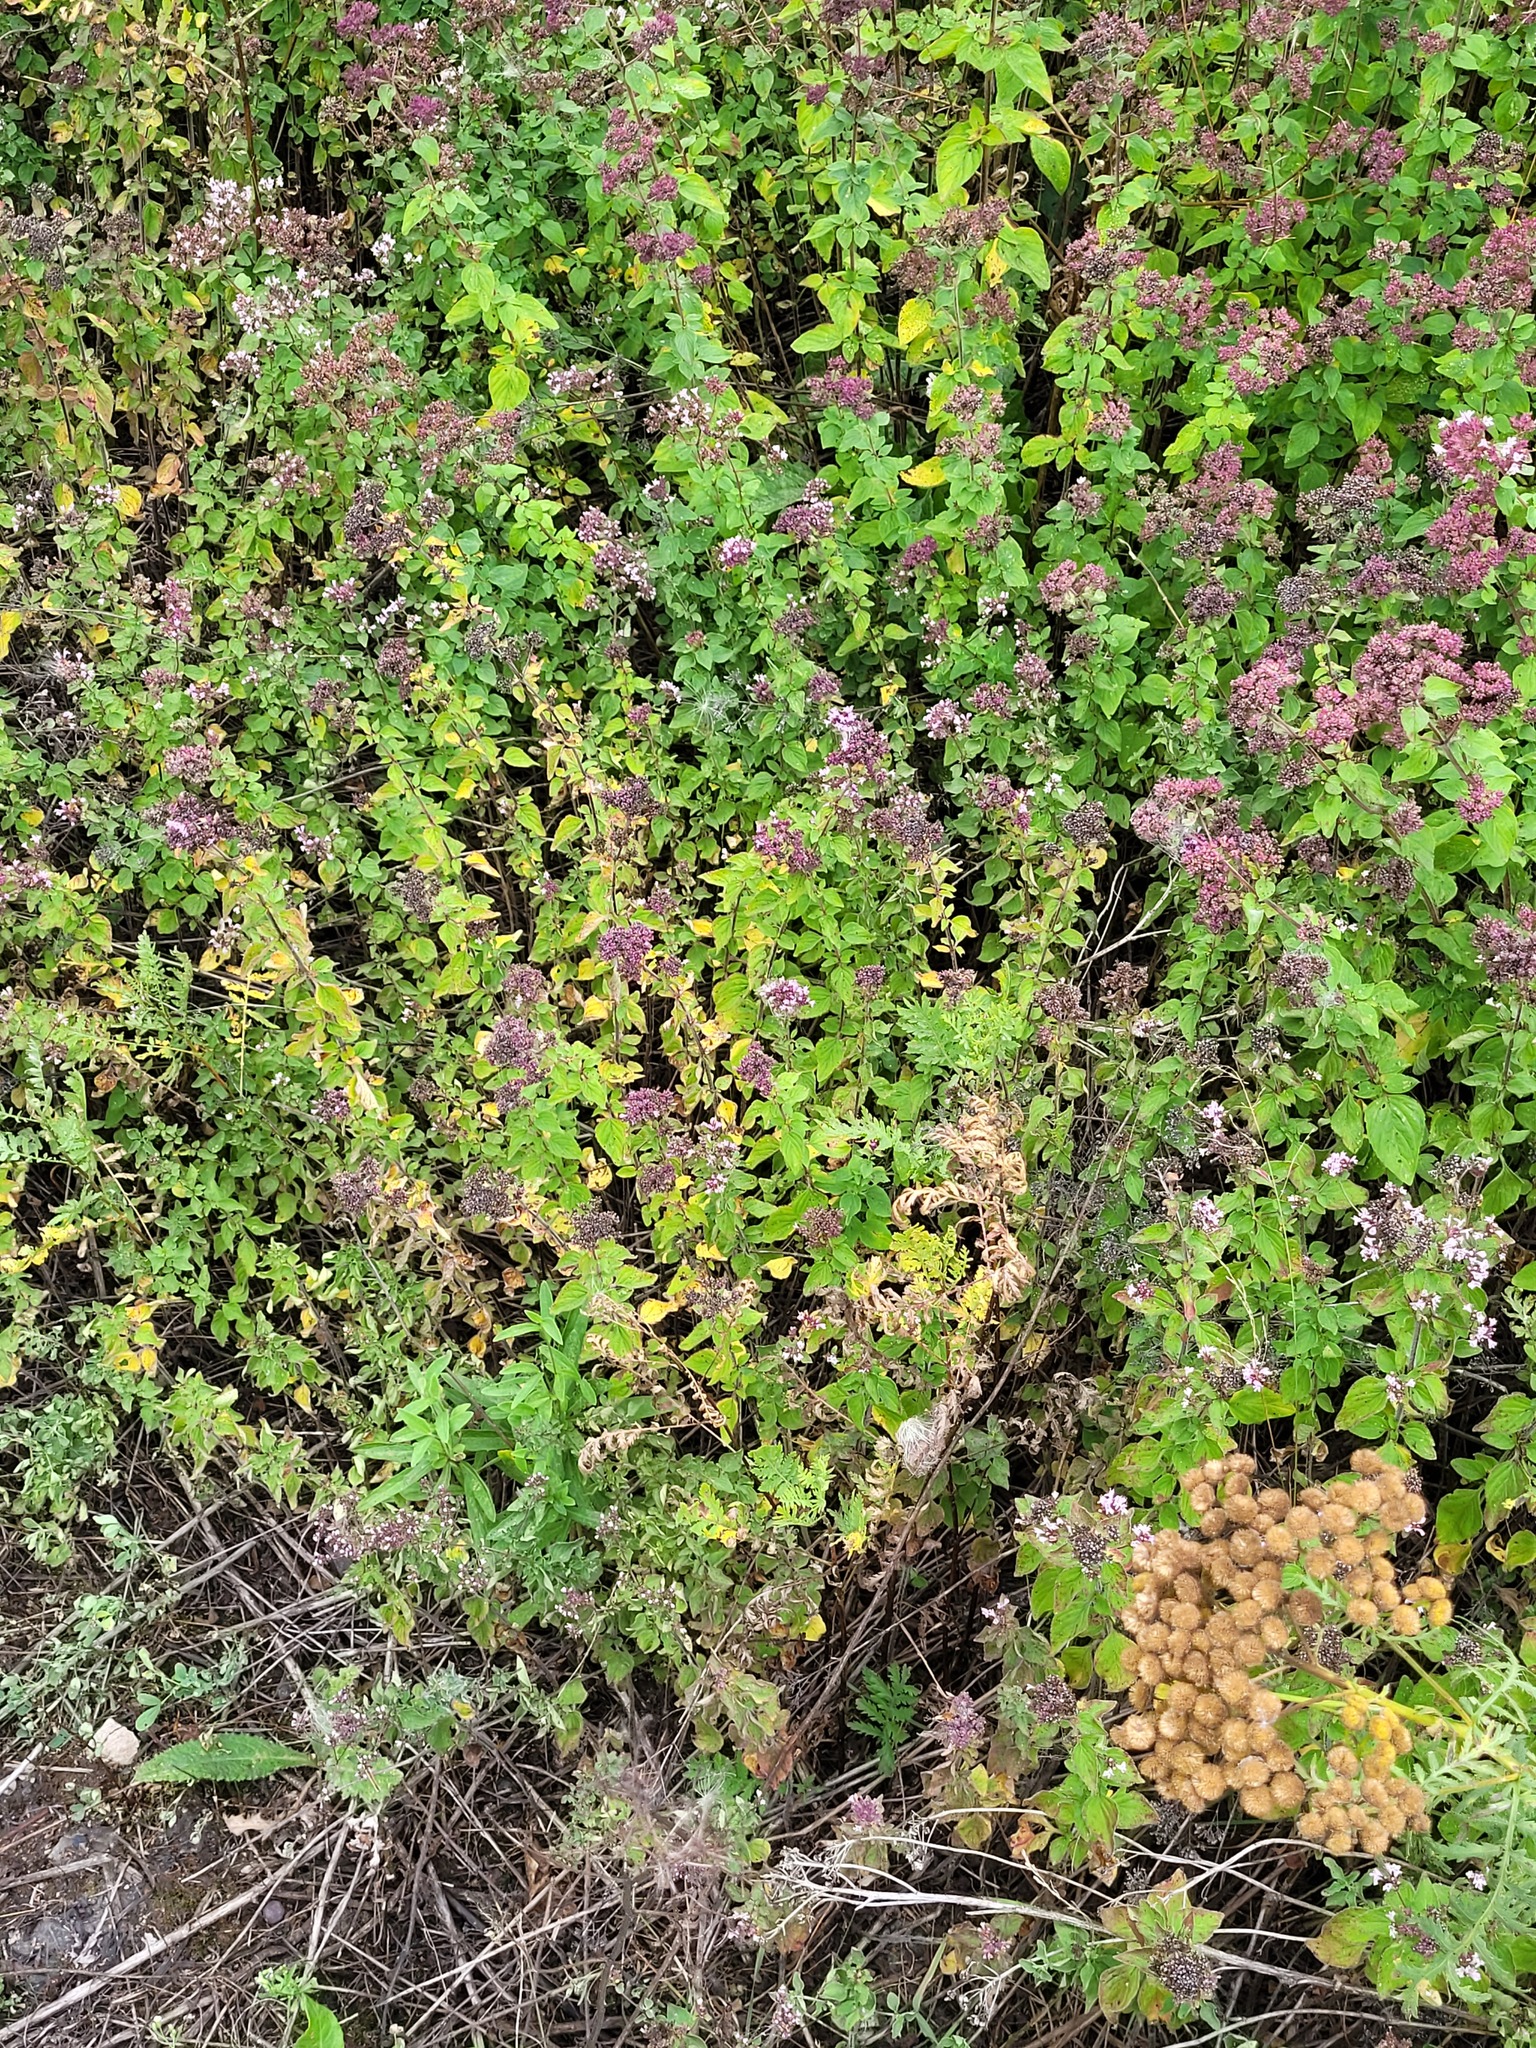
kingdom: Plantae
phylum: Tracheophyta
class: Magnoliopsida
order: Lamiales
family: Lamiaceae
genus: Origanum
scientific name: Origanum vulgare
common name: Wild marjoram
